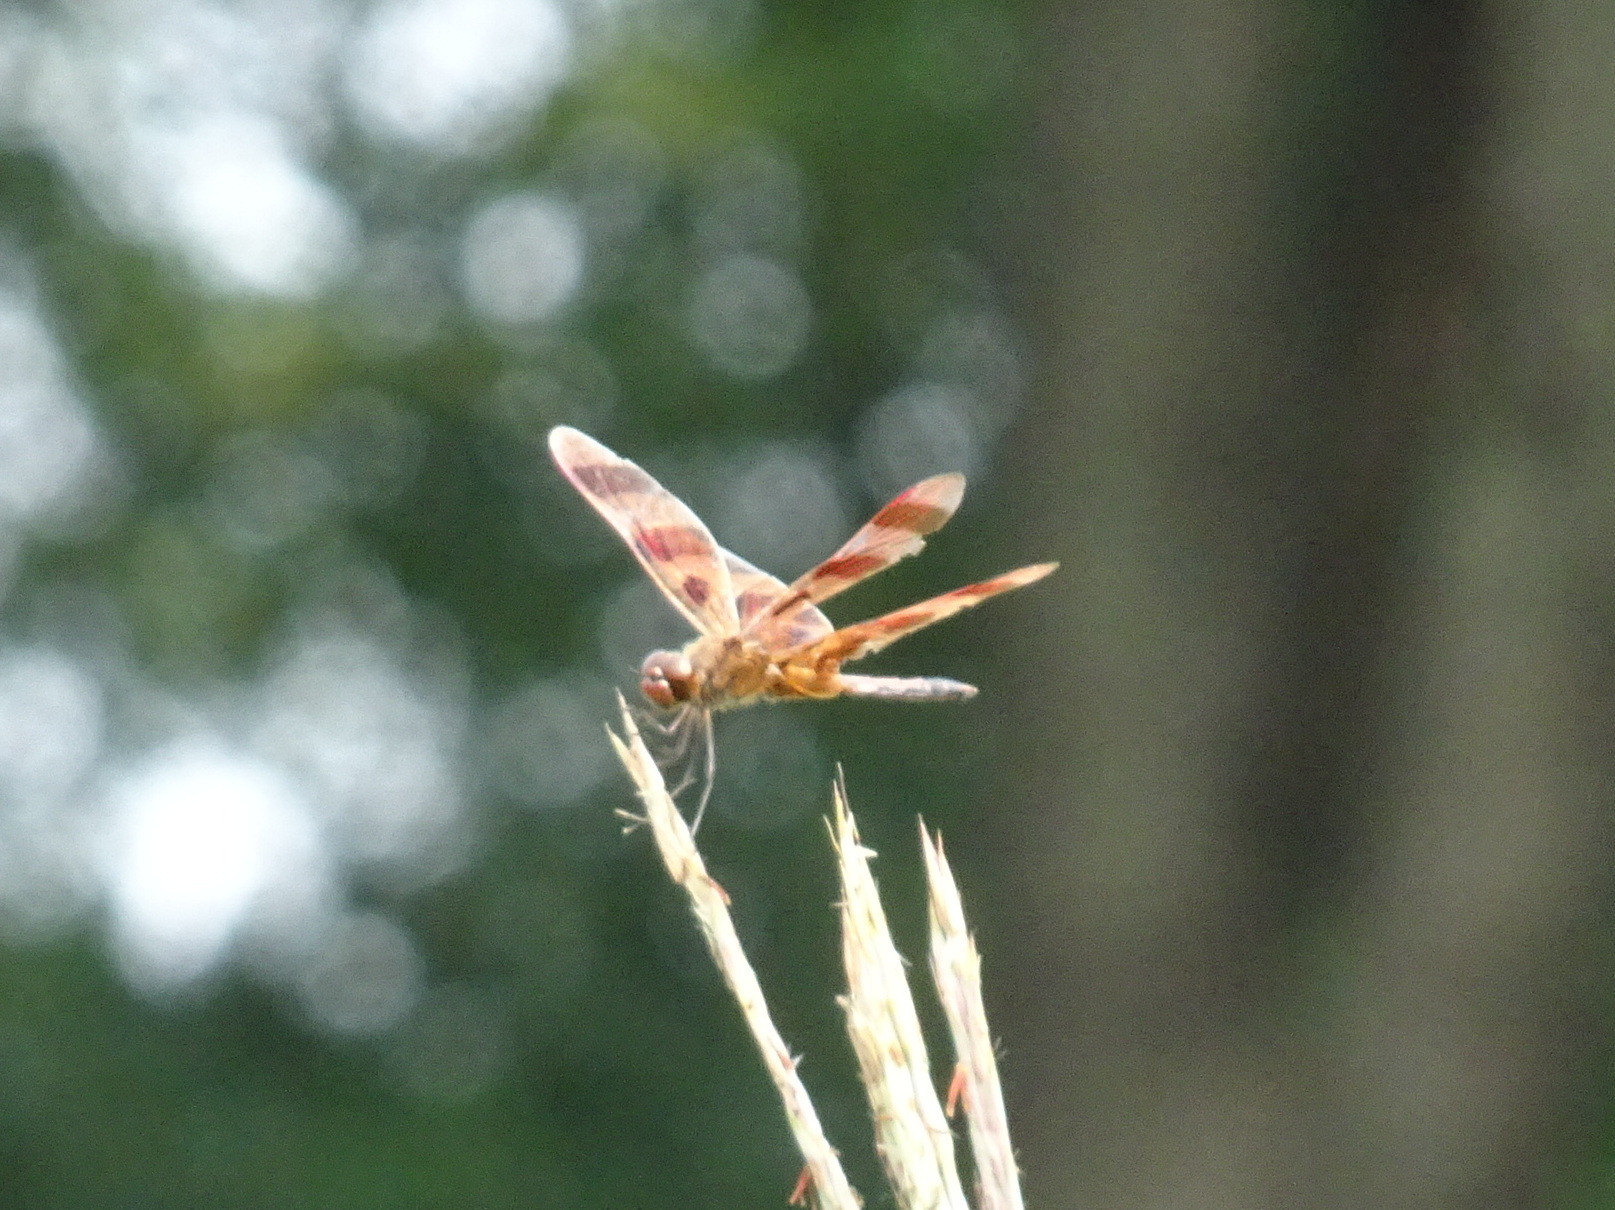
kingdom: Animalia
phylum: Arthropoda
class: Insecta
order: Odonata
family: Libellulidae
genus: Celithemis
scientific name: Celithemis eponina
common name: Halloween pennant
